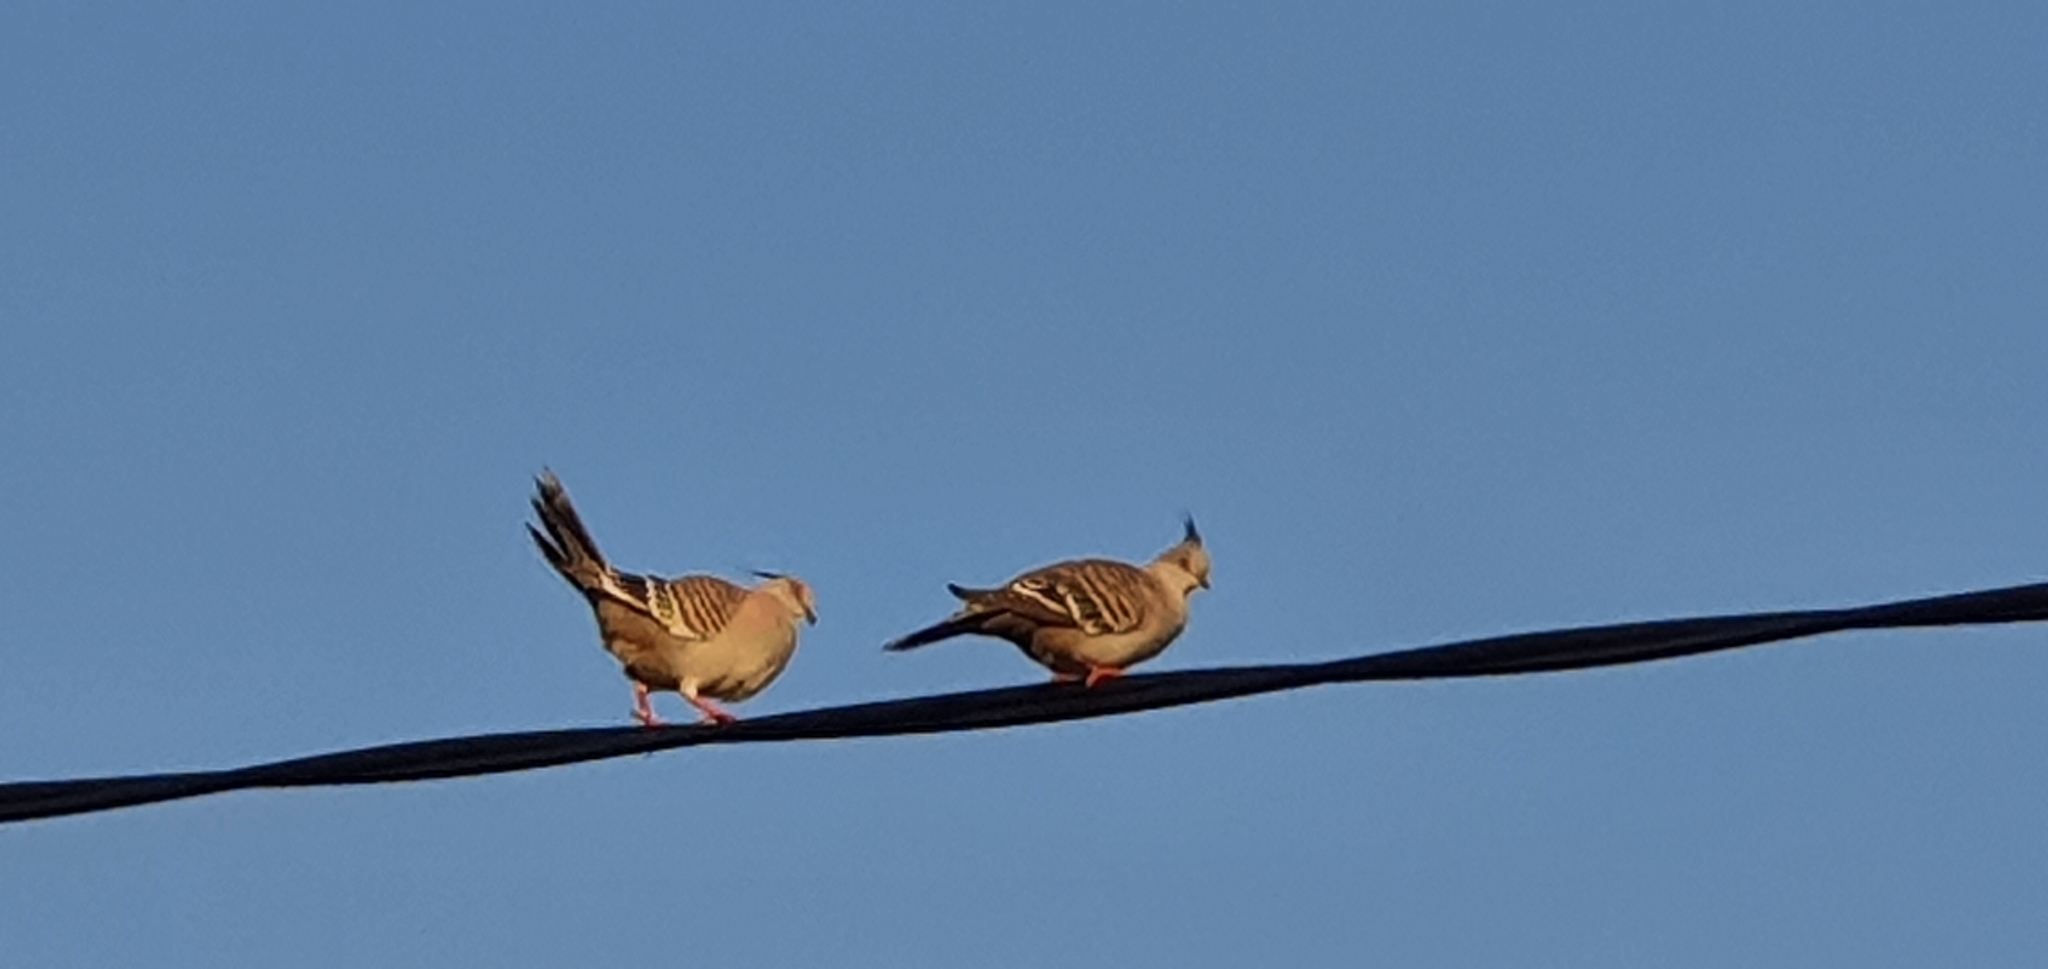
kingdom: Animalia
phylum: Chordata
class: Aves
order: Columbiformes
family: Columbidae
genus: Ocyphaps
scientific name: Ocyphaps lophotes
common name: Crested pigeon
